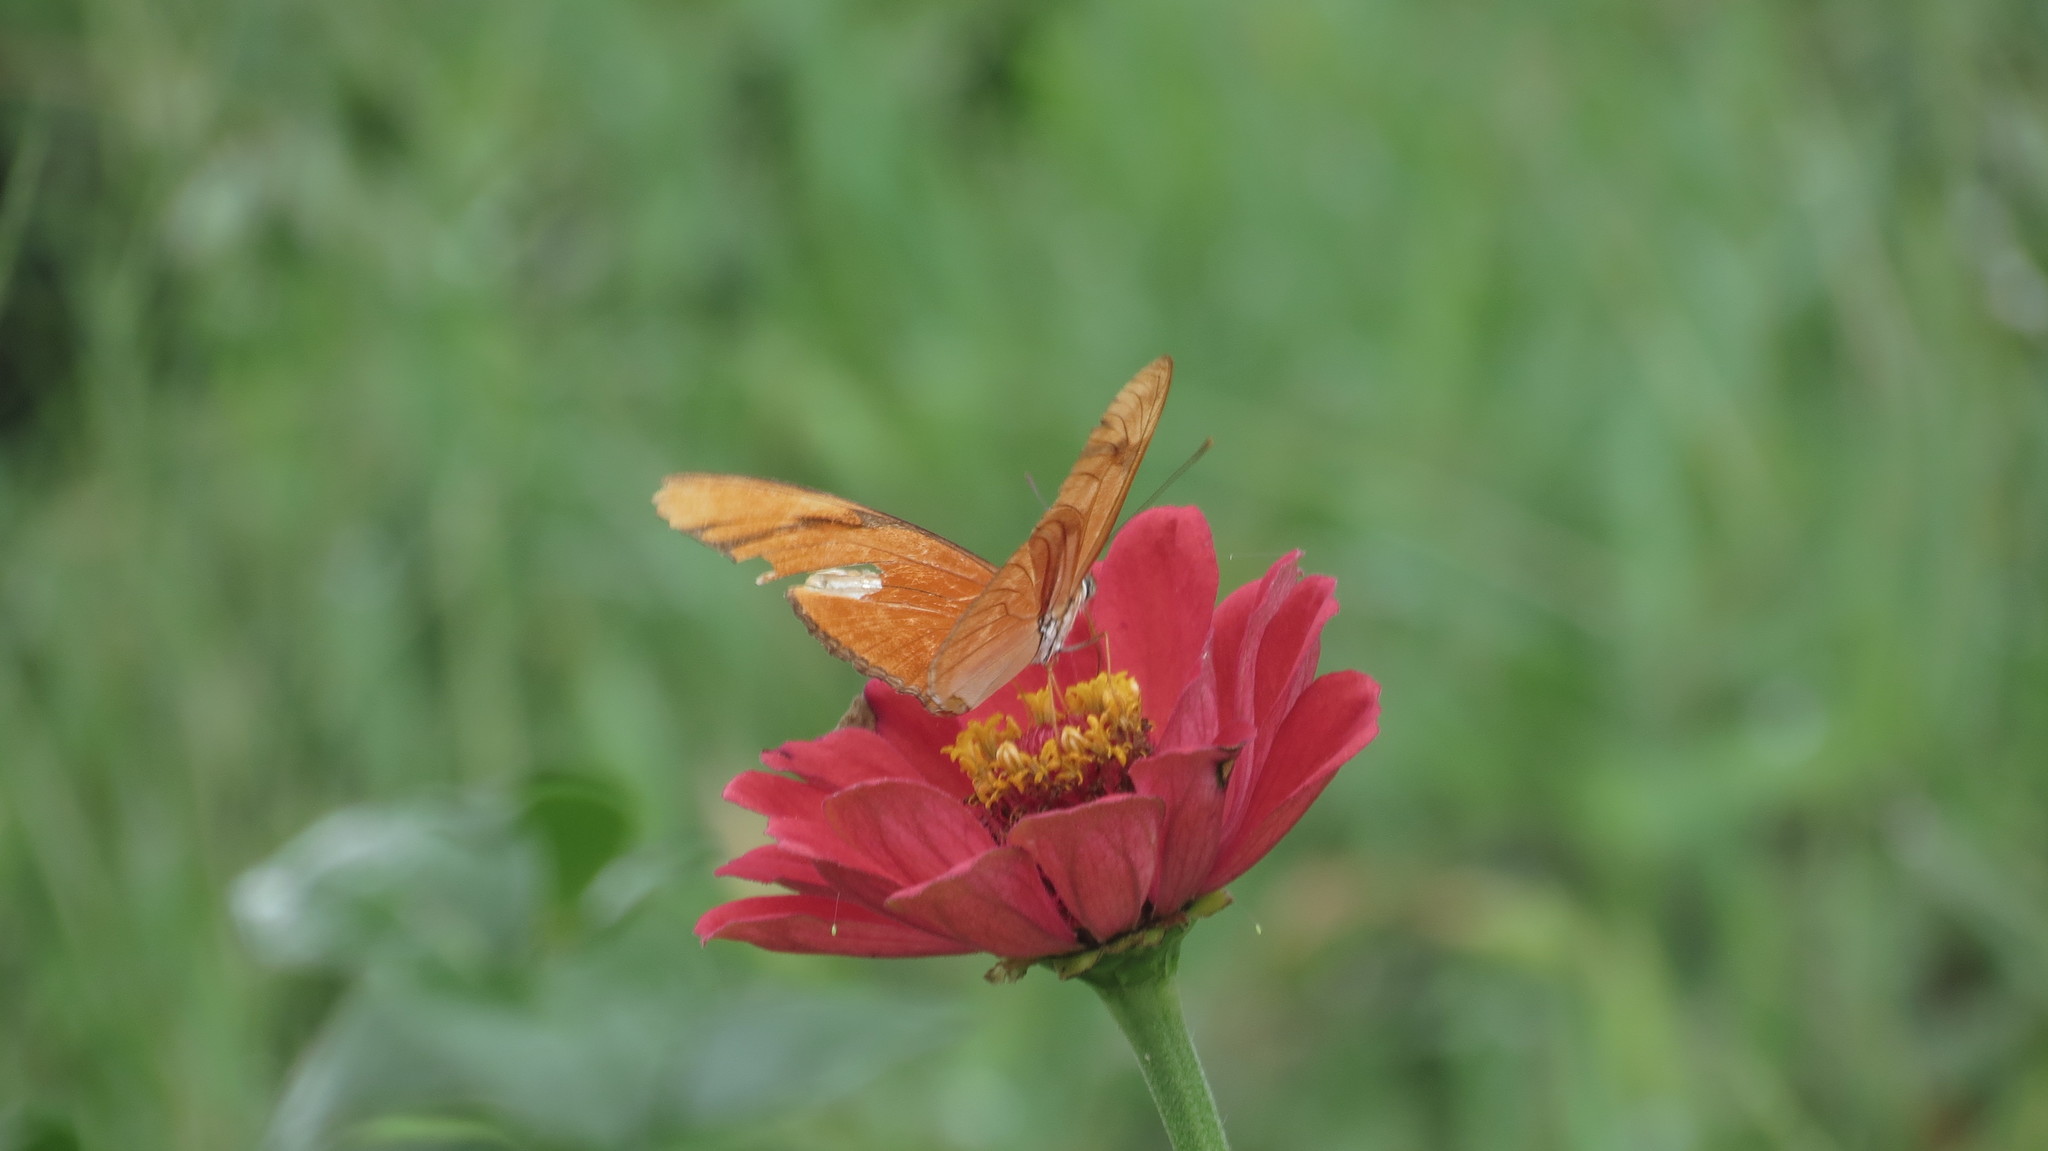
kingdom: Animalia
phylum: Arthropoda
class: Insecta
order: Lepidoptera
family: Nymphalidae
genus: Dryas
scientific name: Dryas iulia
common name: Flambeau
